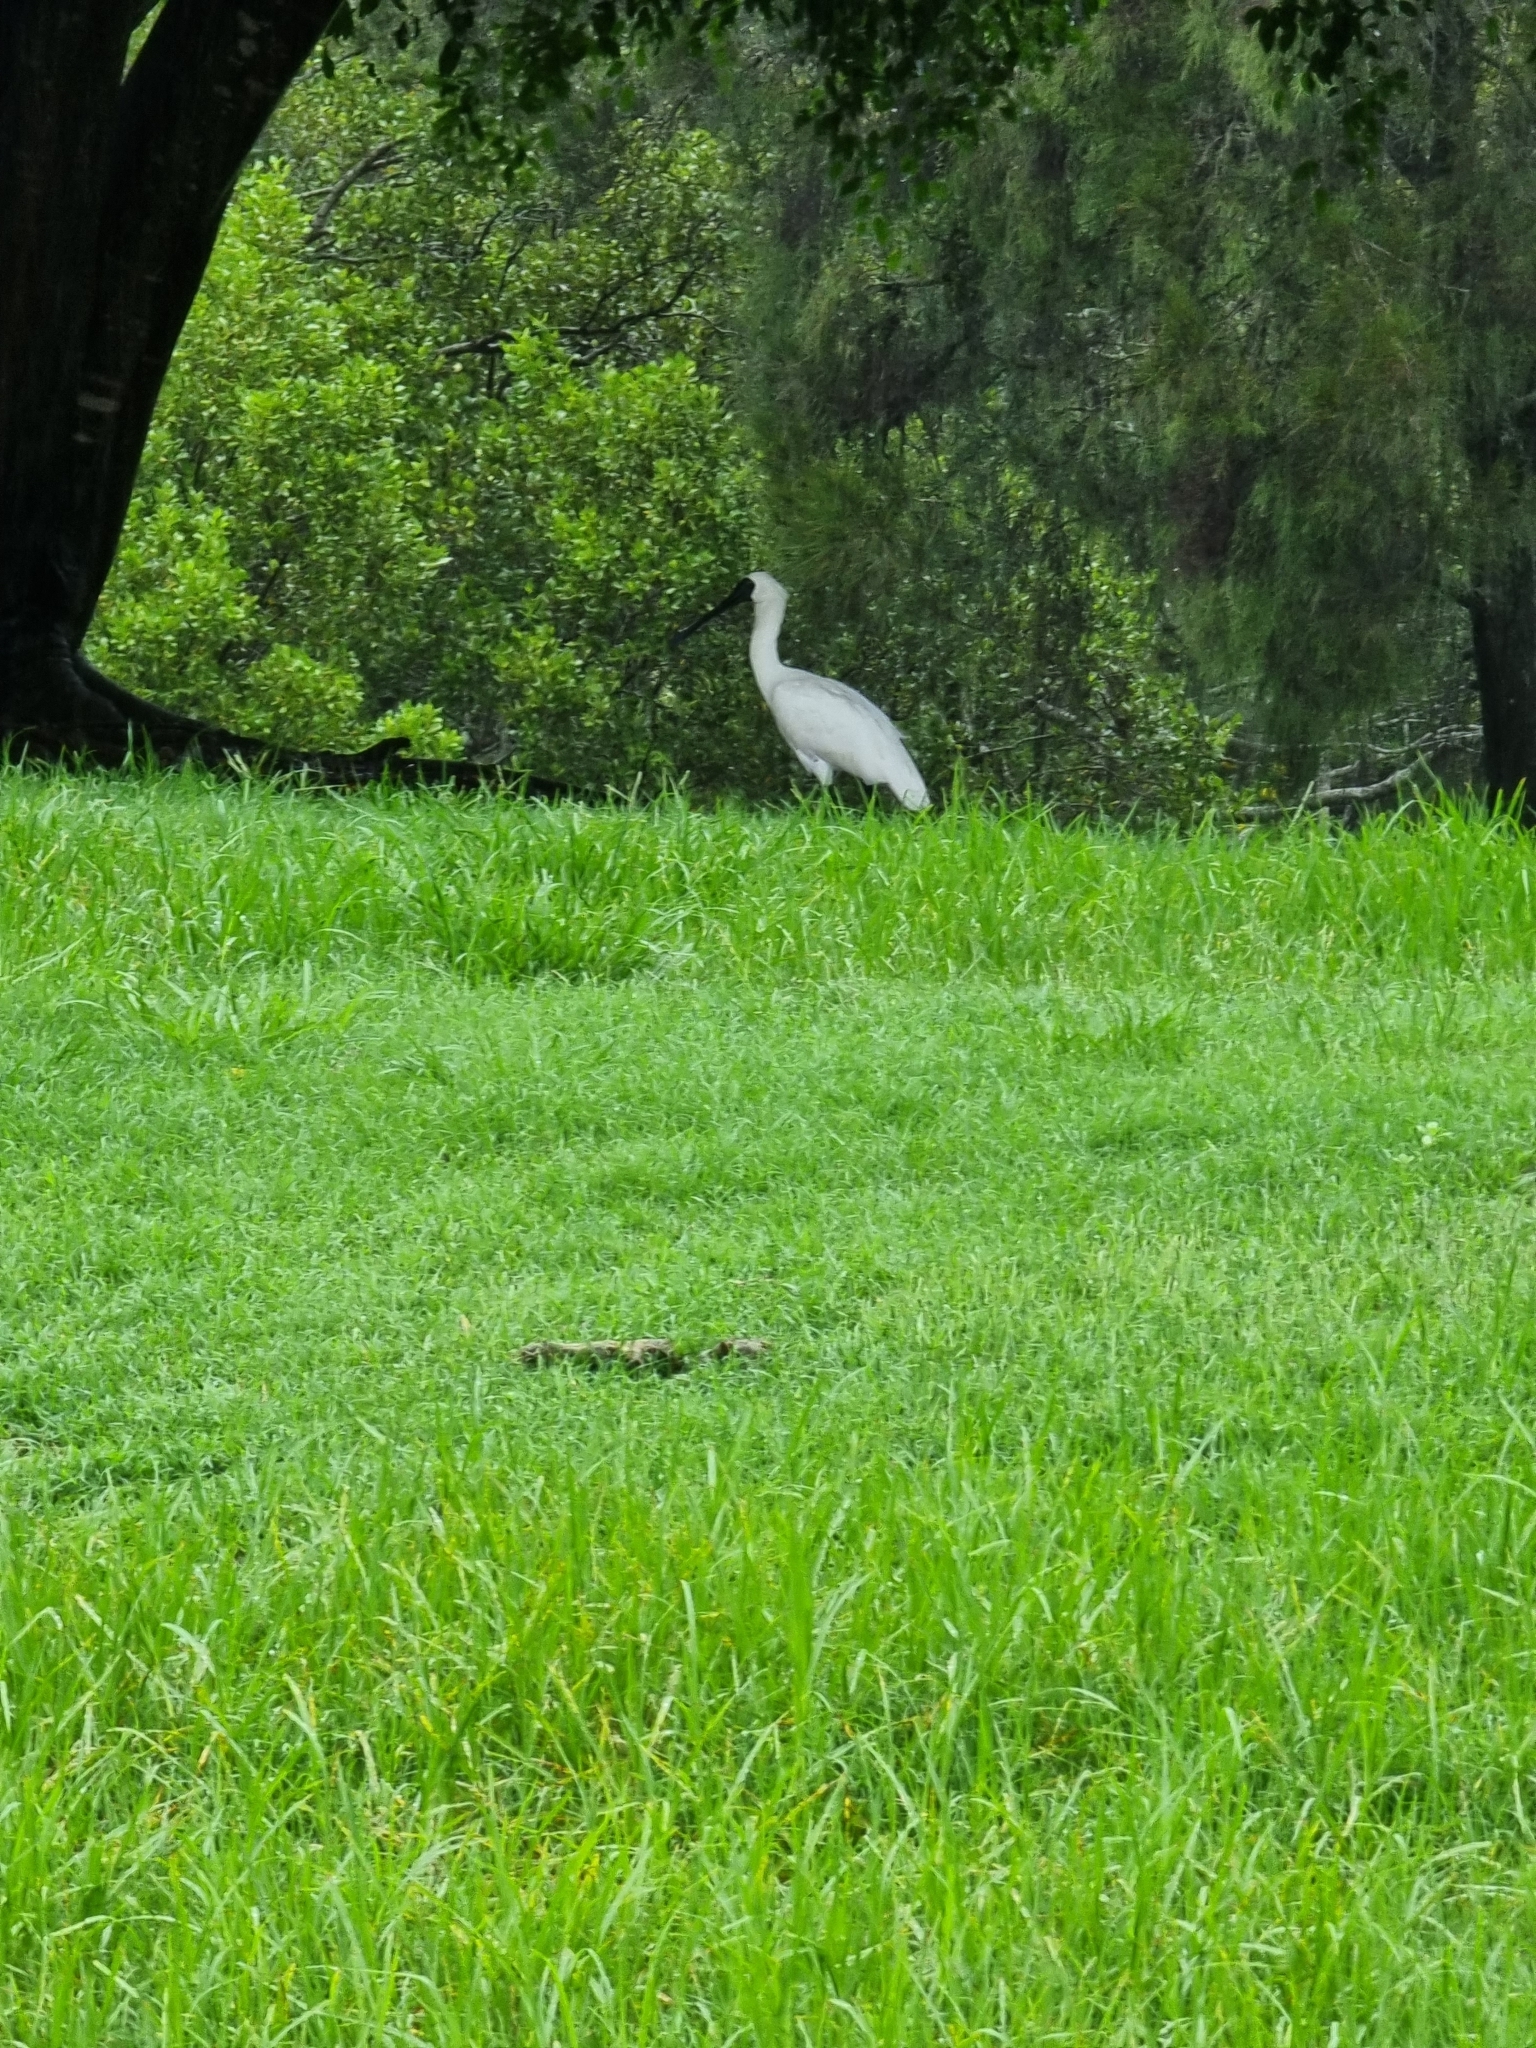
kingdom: Animalia
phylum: Chordata
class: Aves
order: Pelecaniformes
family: Threskiornithidae
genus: Platalea
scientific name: Platalea regia
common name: Royal spoonbill
